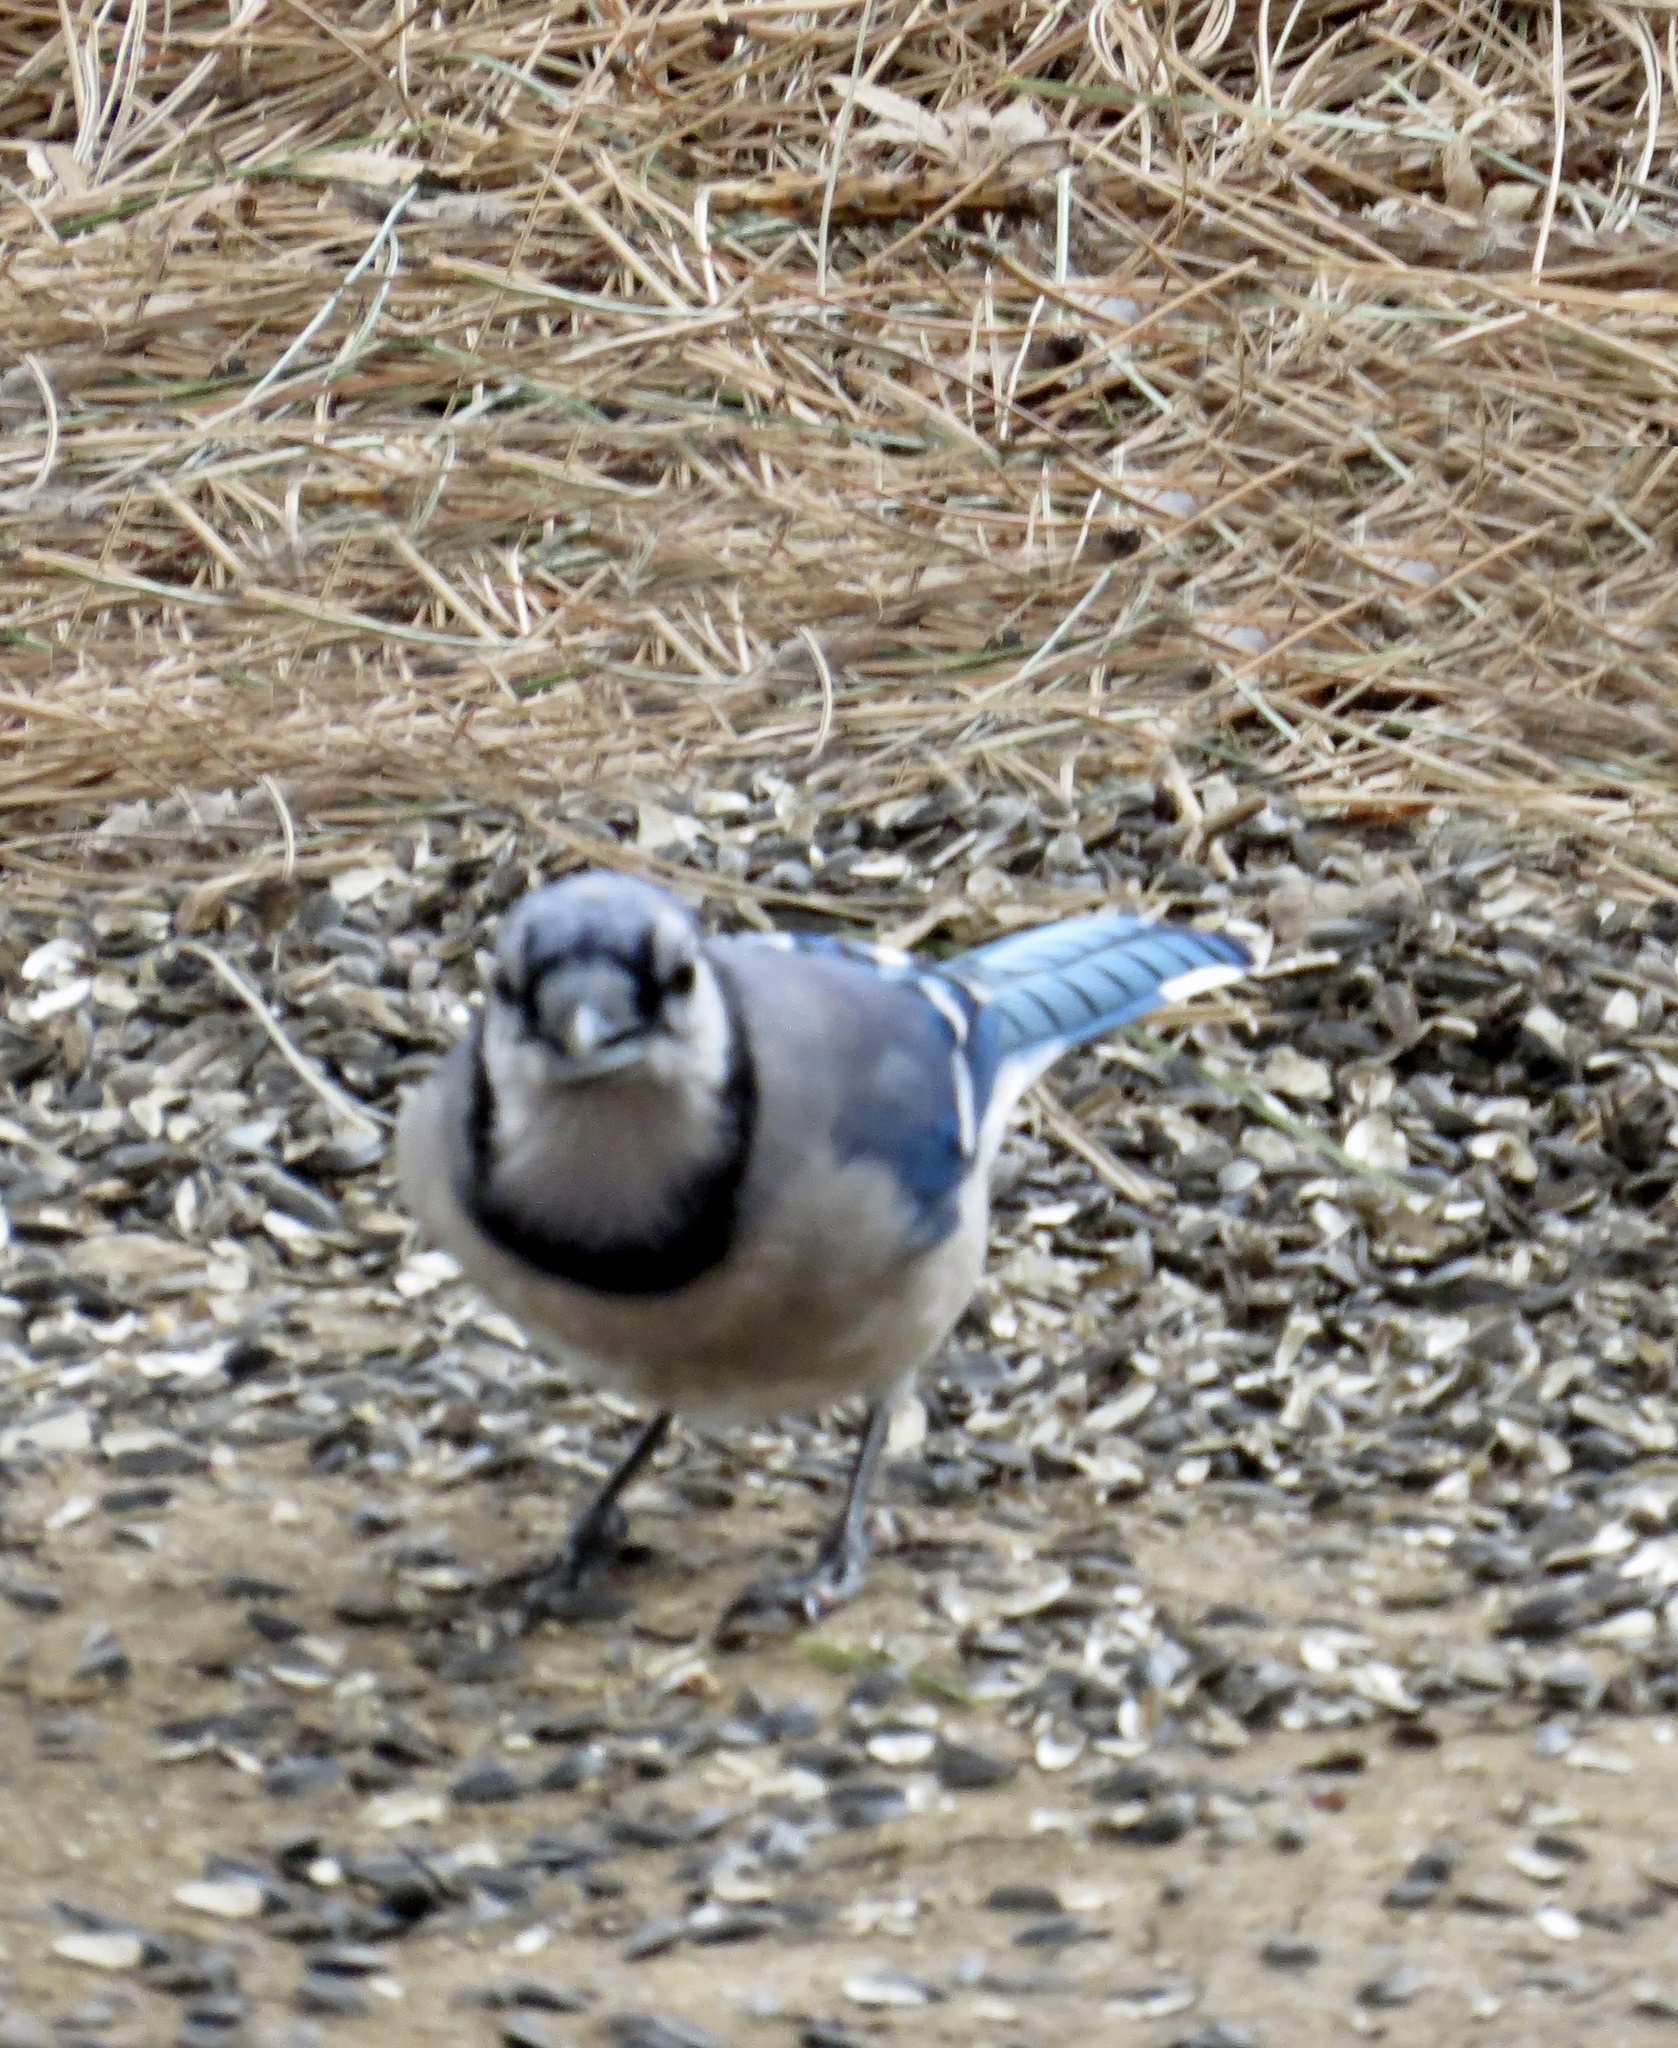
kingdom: Animalia
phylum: Chordata
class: Aves
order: Passeriformes
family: Corvidae
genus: Cyanocitta
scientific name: Cyanocitta cristata
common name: Blue jay
